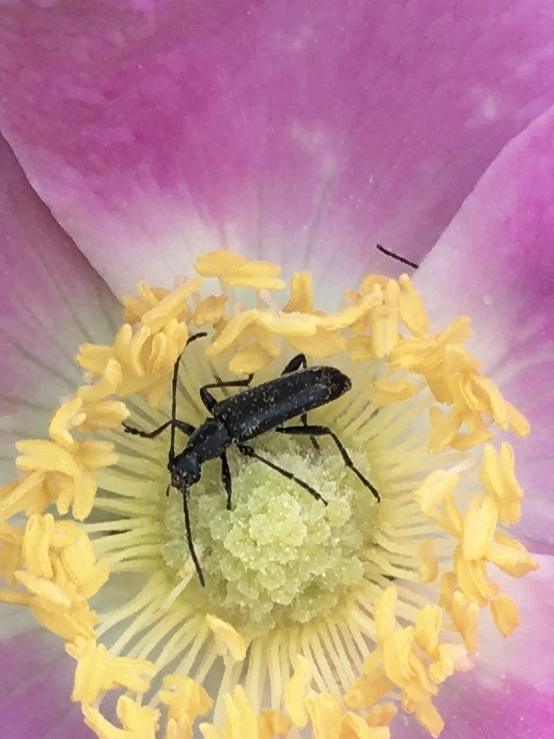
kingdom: Animalia
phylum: Arthropoda
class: Insecta
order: Coleoptera
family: Cerambycidae
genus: Anastrangalia
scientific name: Anastrangalia laetifica
